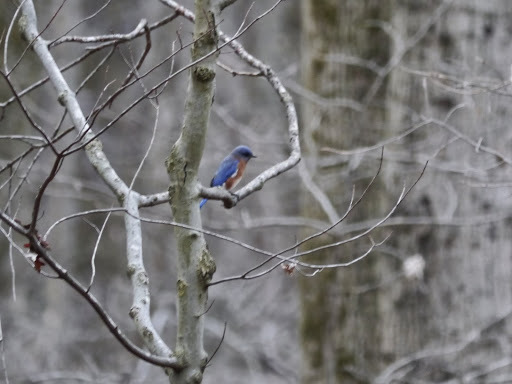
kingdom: Animalia
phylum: Chordata
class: Aves
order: Passeriformes
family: Turdidae
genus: Sialia
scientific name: Sialia sialis
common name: Eastern bluebird
